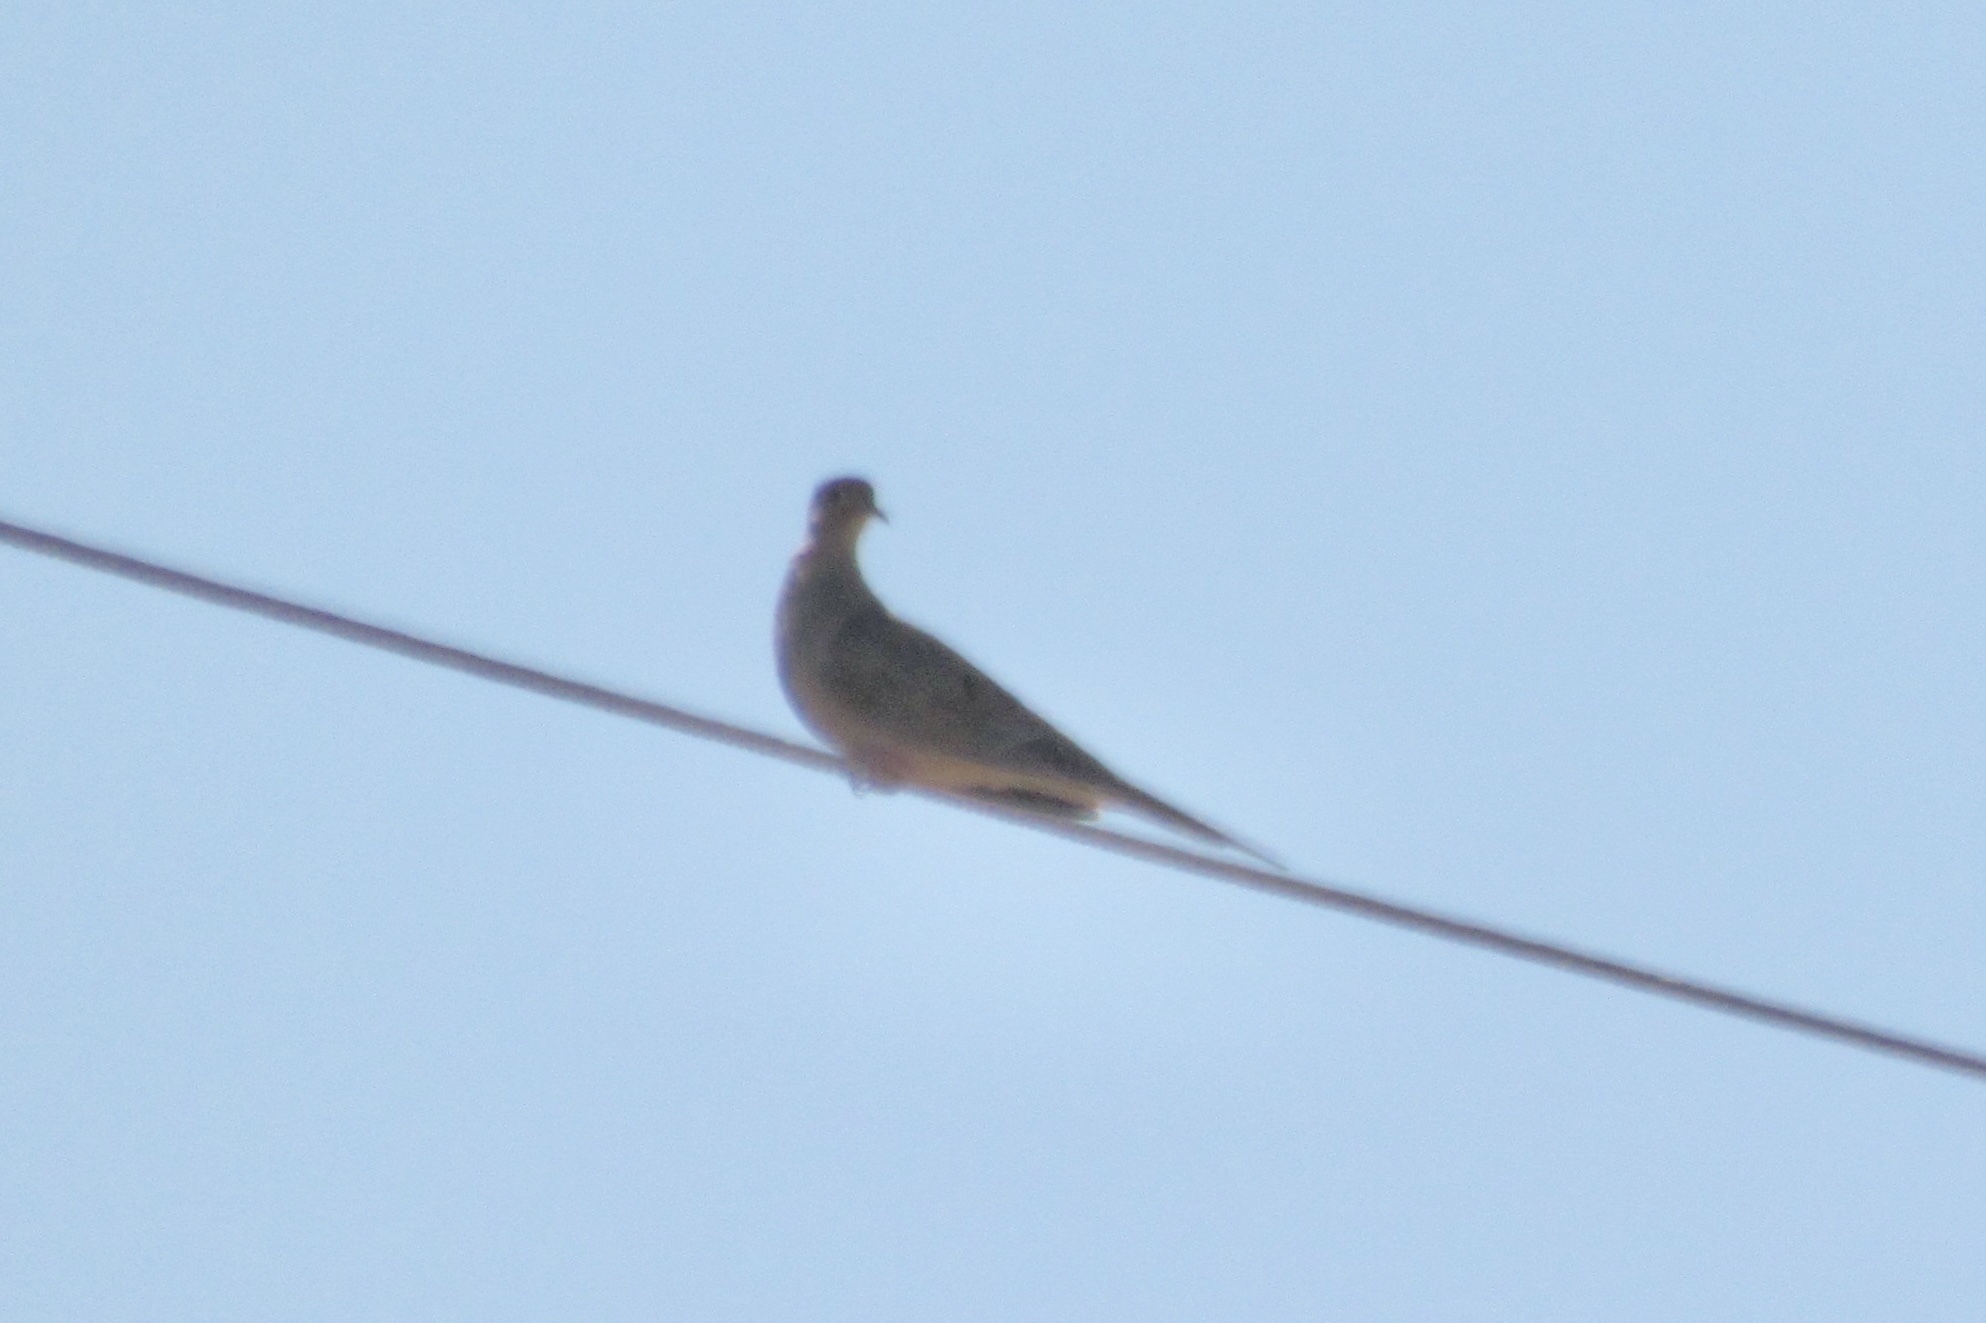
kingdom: Animalia
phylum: Chordata
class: Aves
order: Columbiformes
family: Columbidae
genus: Zenaida
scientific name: Zenaida macroura
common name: Mourning dove
